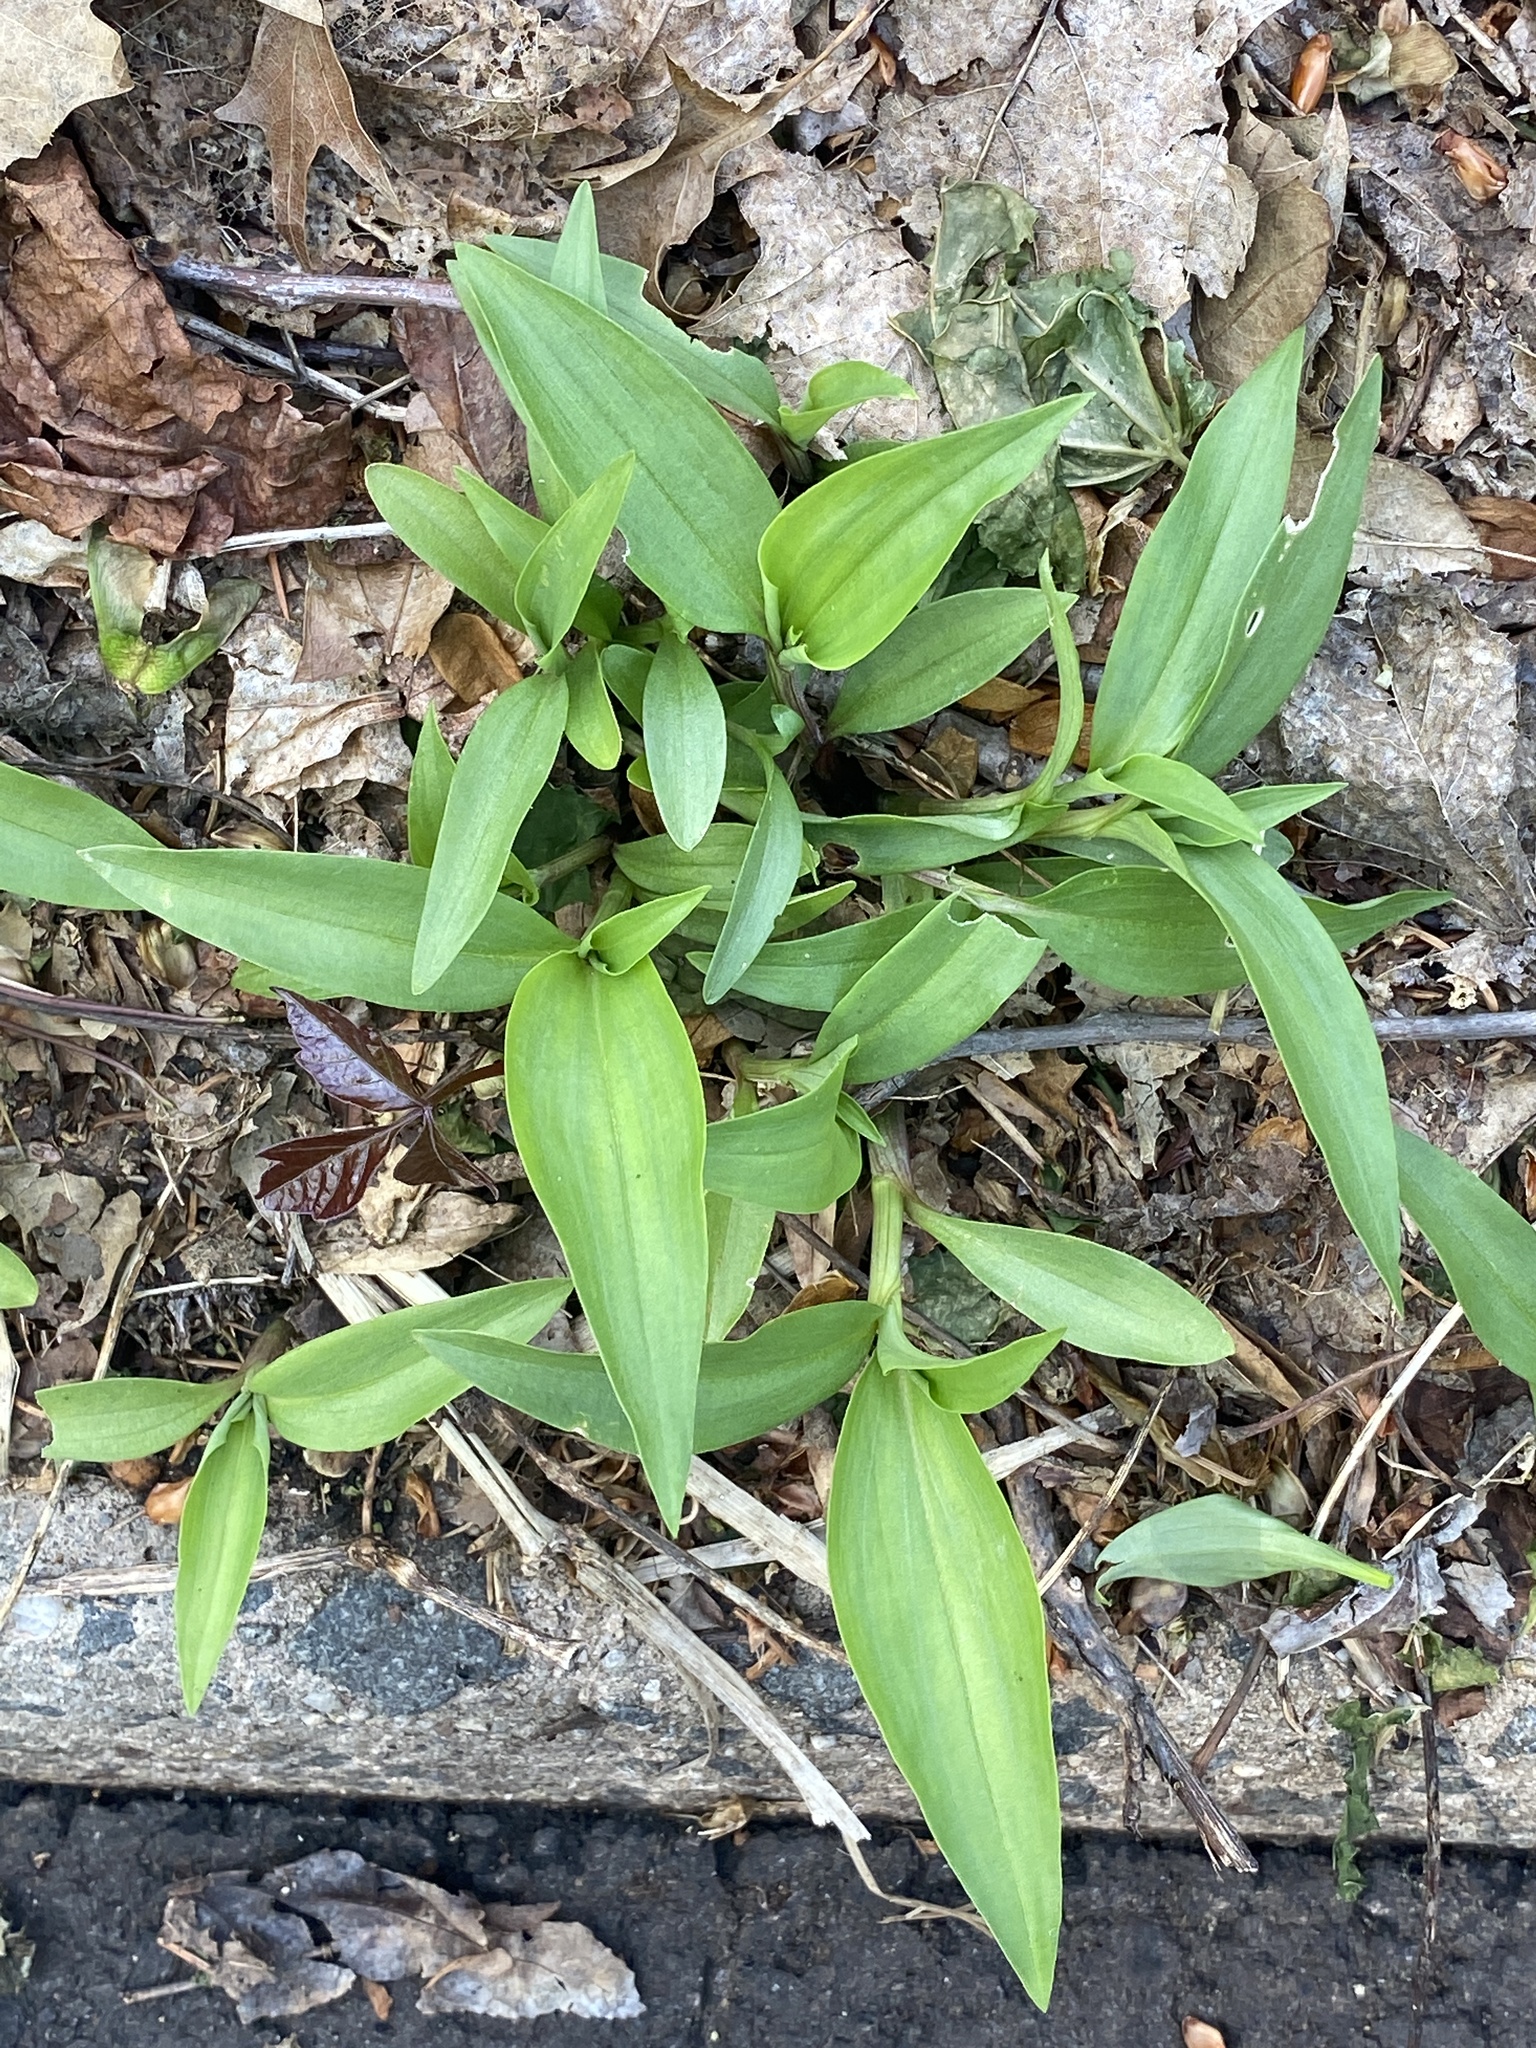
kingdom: Plantae
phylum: Tracheophyta
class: Liliopsida
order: Poales
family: Poaceae
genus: Dichanthelium
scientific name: Dichanthelium clandestinum
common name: Deer-tongue grass
